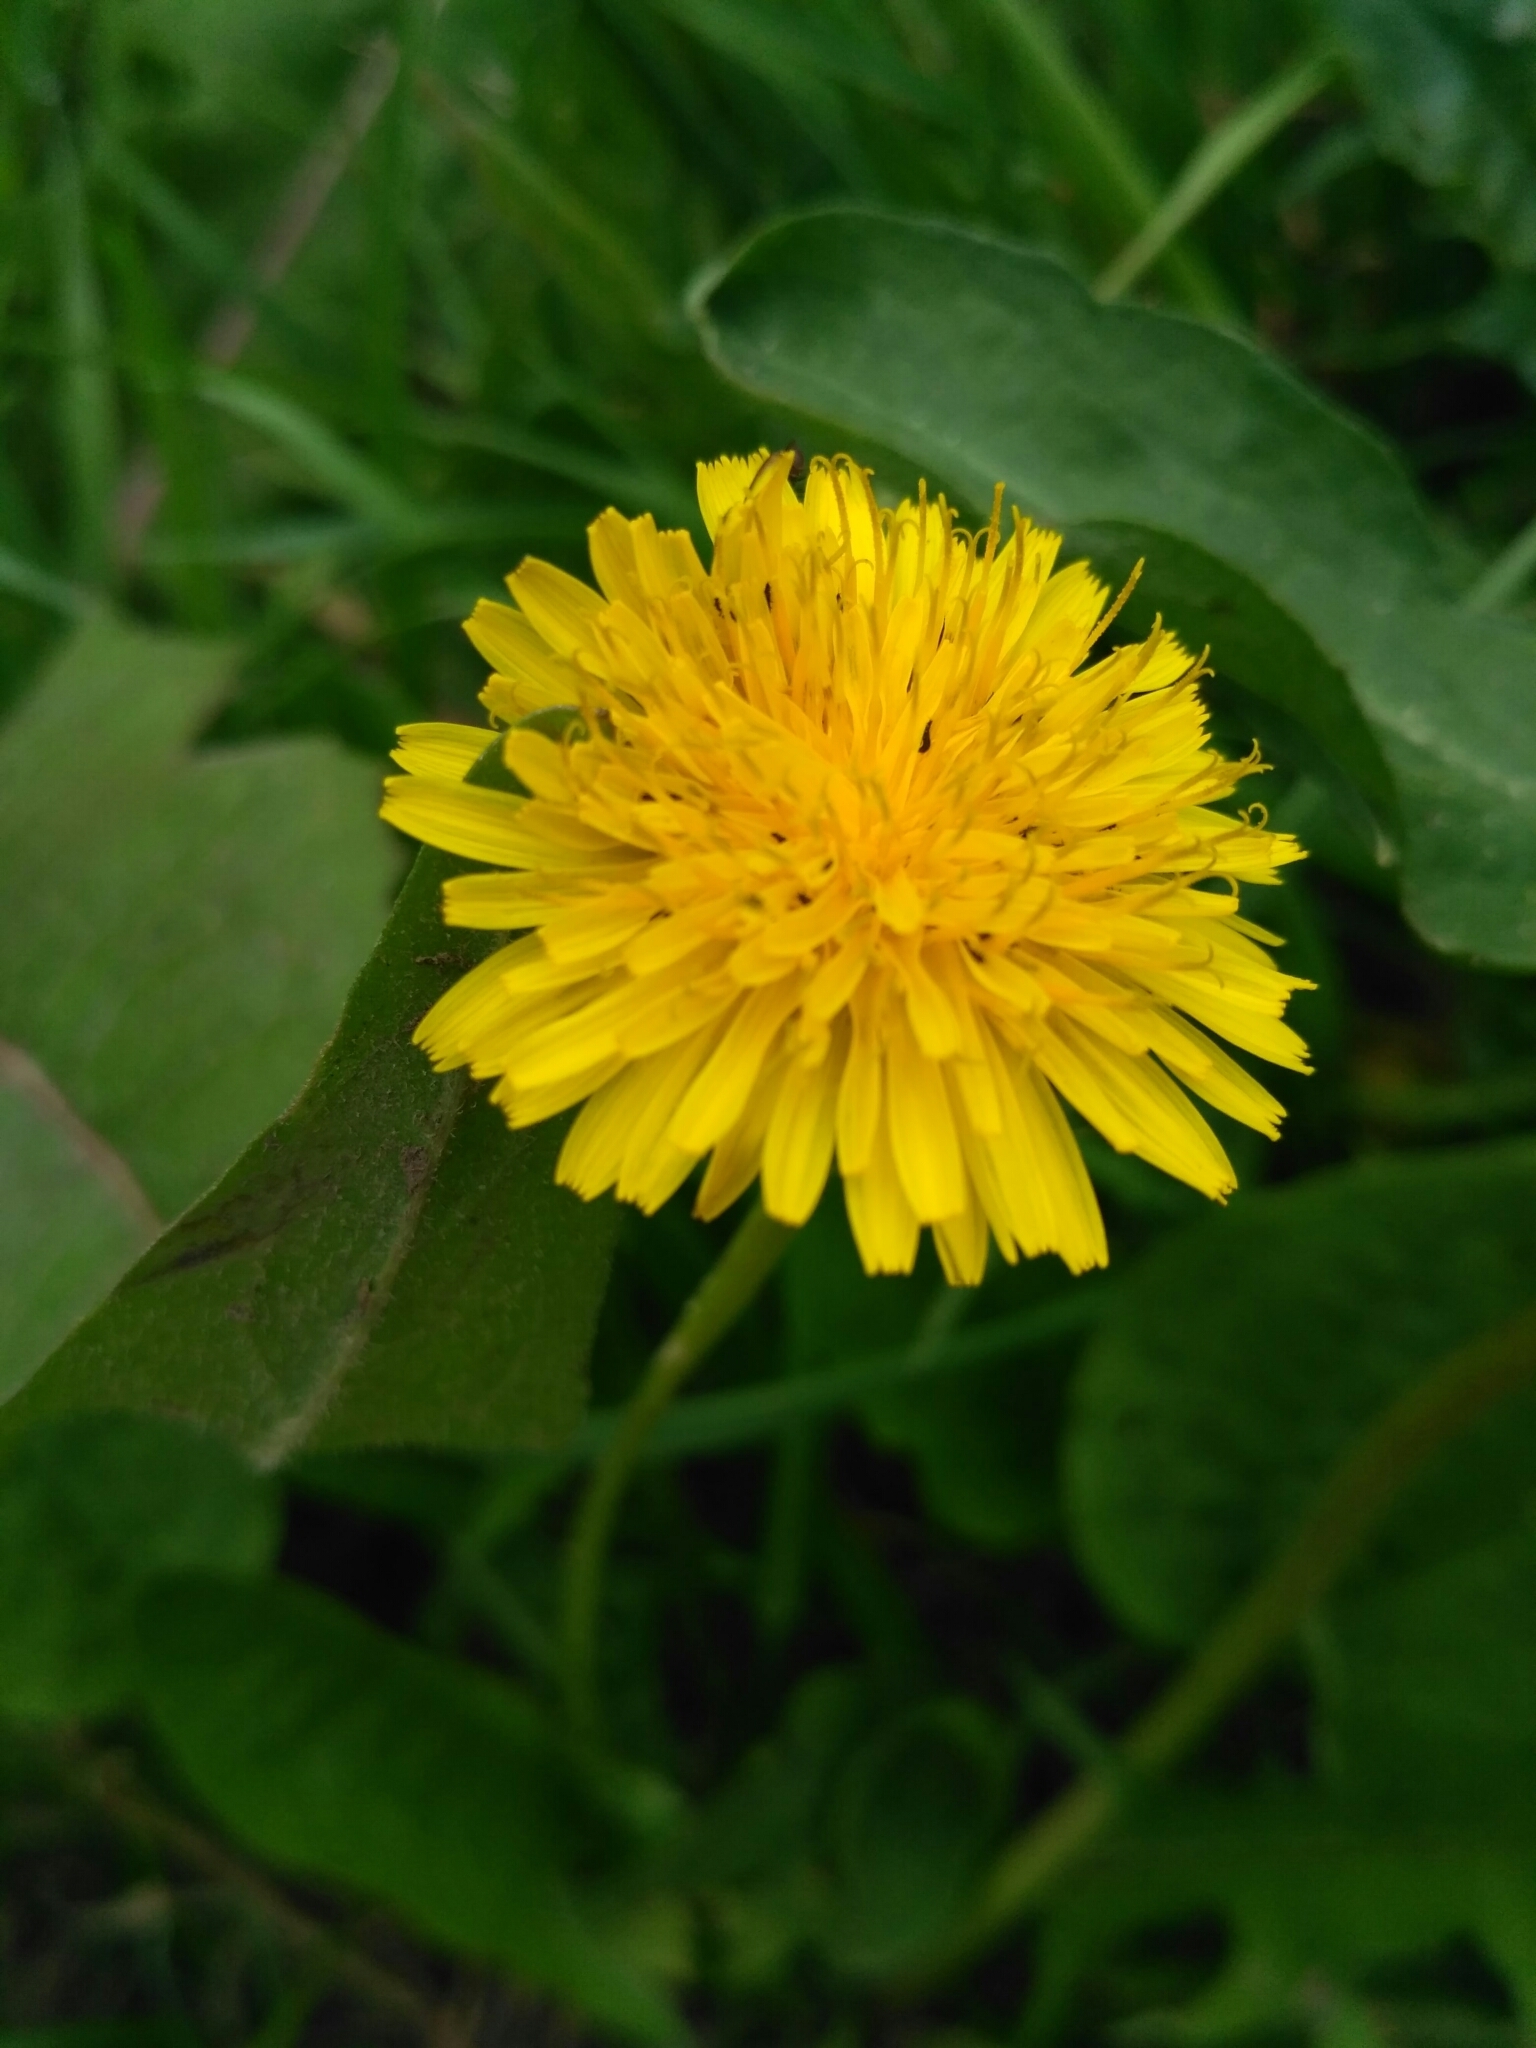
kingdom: Plantae
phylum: Tracheophyta
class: Magnoliopsida
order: Asterales
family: Asteraceae
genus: Taraxacum
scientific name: Taraxacum officinale
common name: Common dandelion
